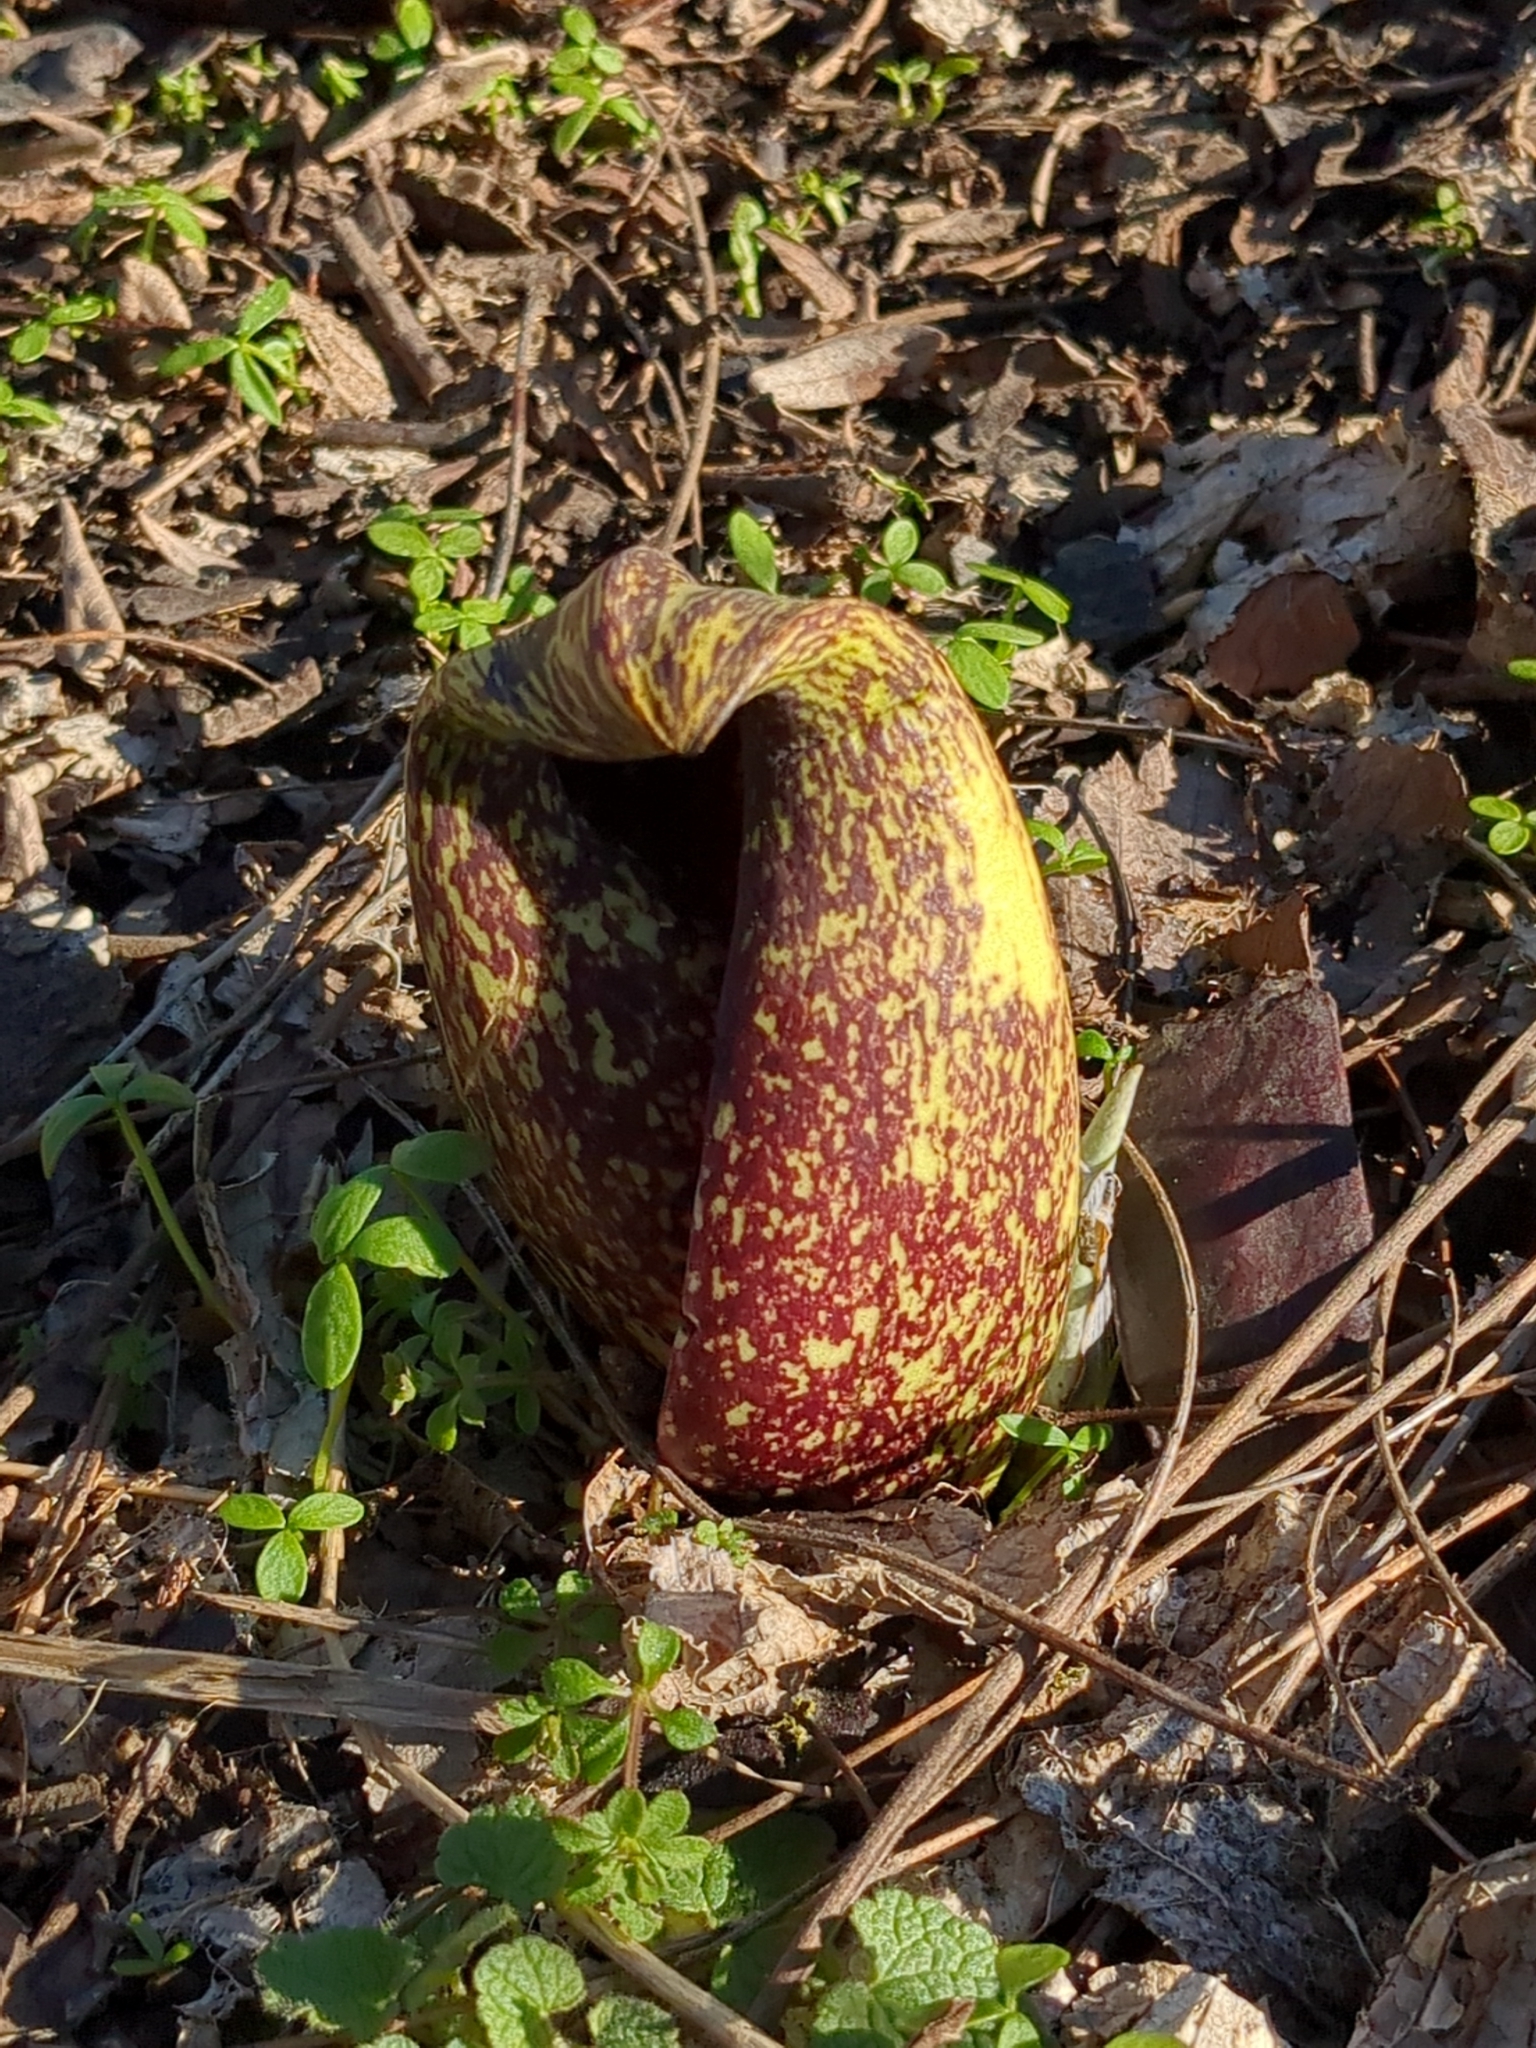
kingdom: Plantae
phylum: Tracheophyta
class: Liliopsida
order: Alismatales
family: Araceae
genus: Symplocarpus
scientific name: Symplocarpus foetidus
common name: Eastern skunk cabbage
